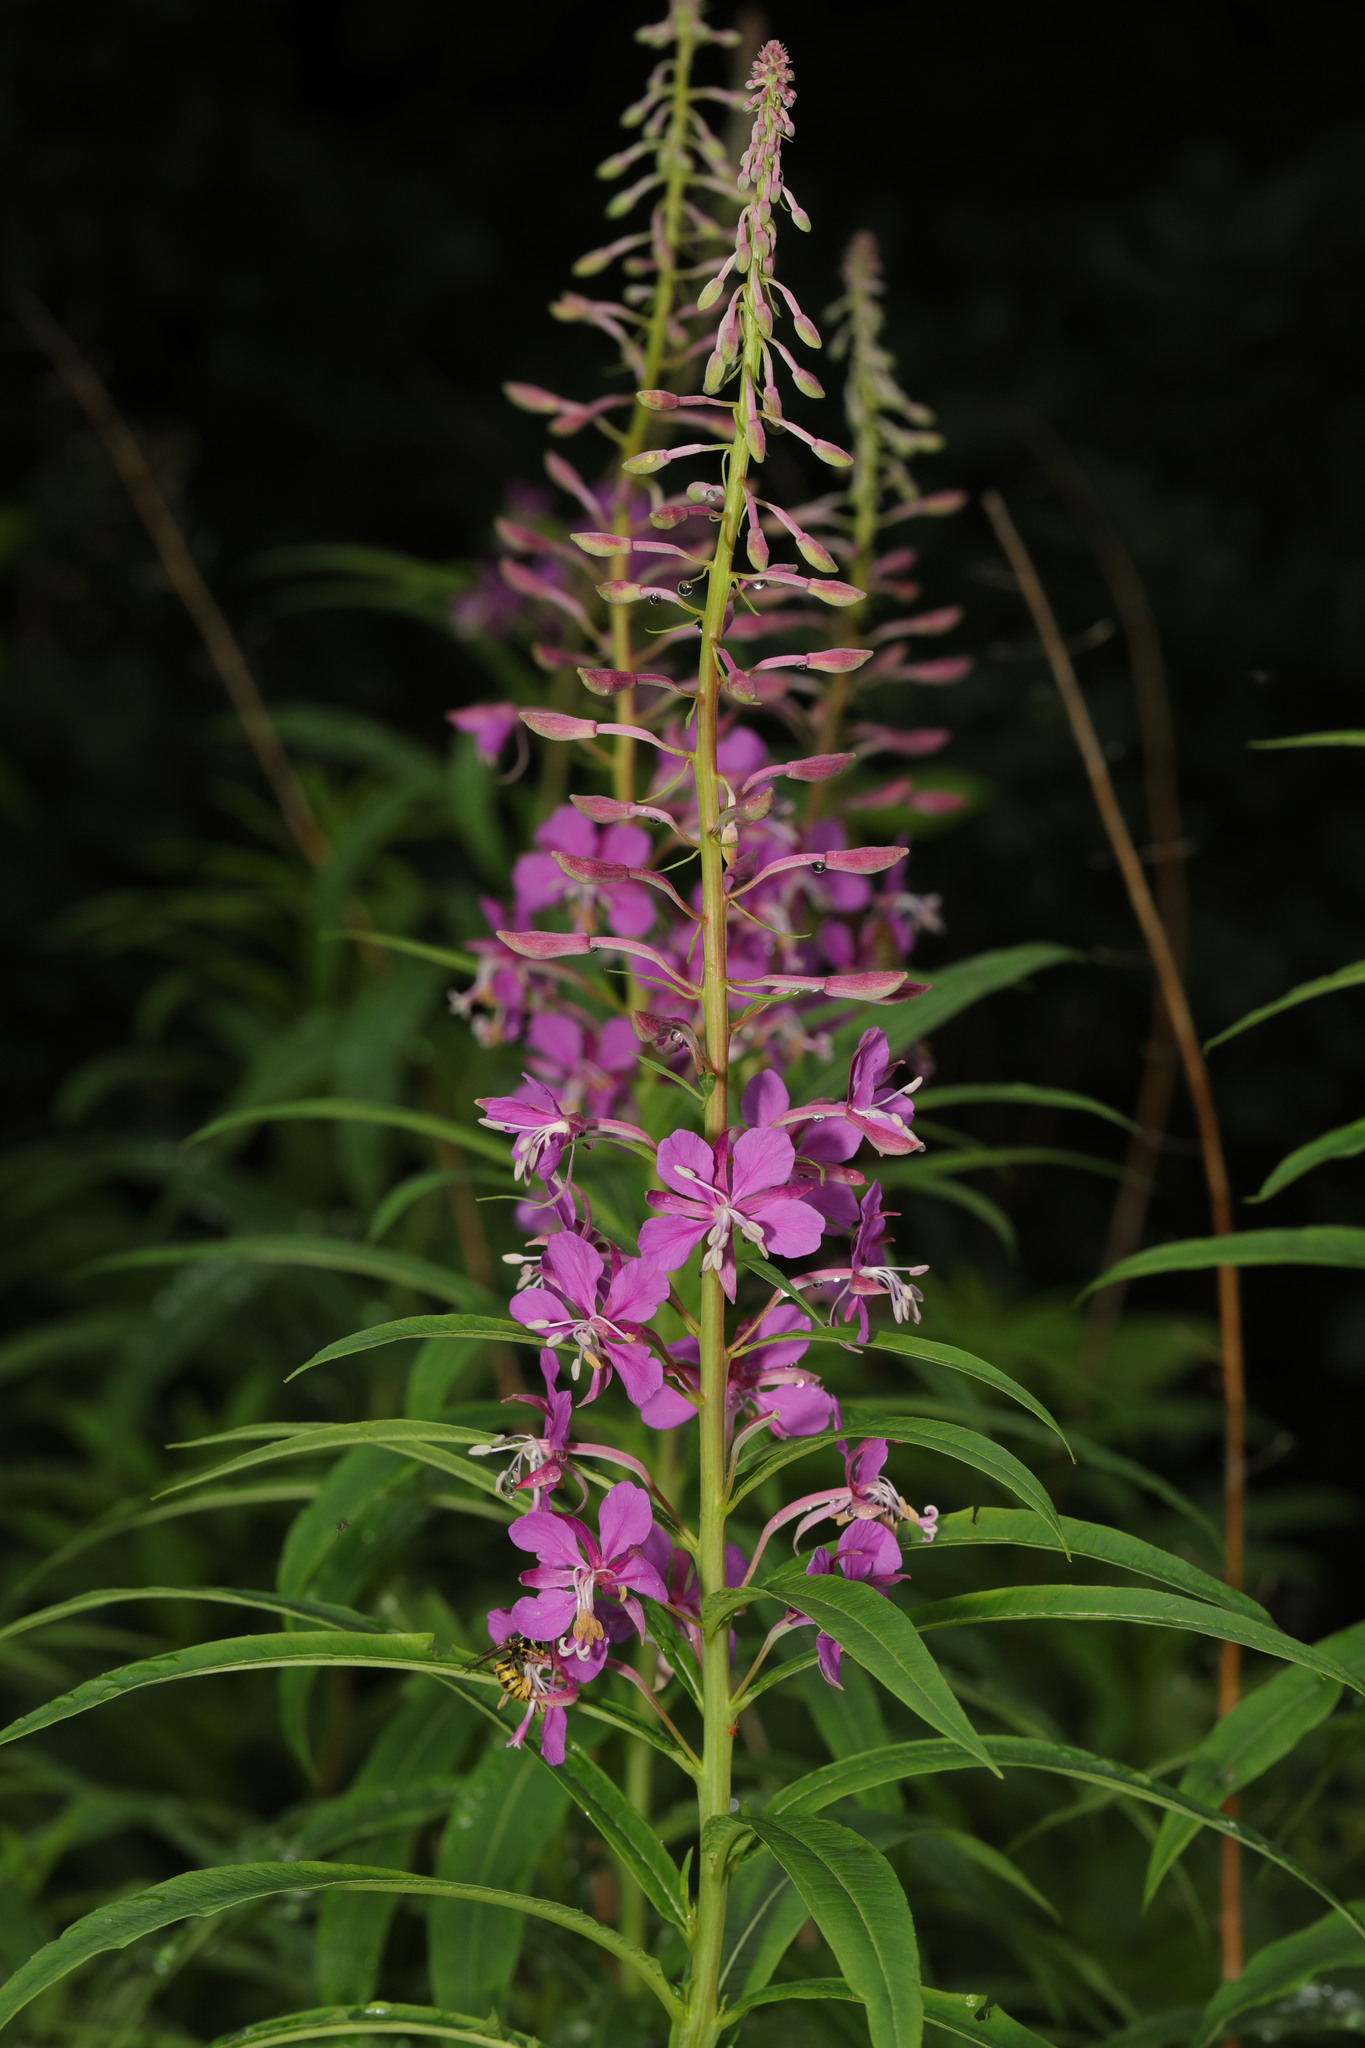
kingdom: Plantae
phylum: Tracheophyta
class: Magnoliopsida
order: Myrtales
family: Onagraceae
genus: Chamaenerion
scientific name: Chamaenerion angustifolium
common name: Fireweed
